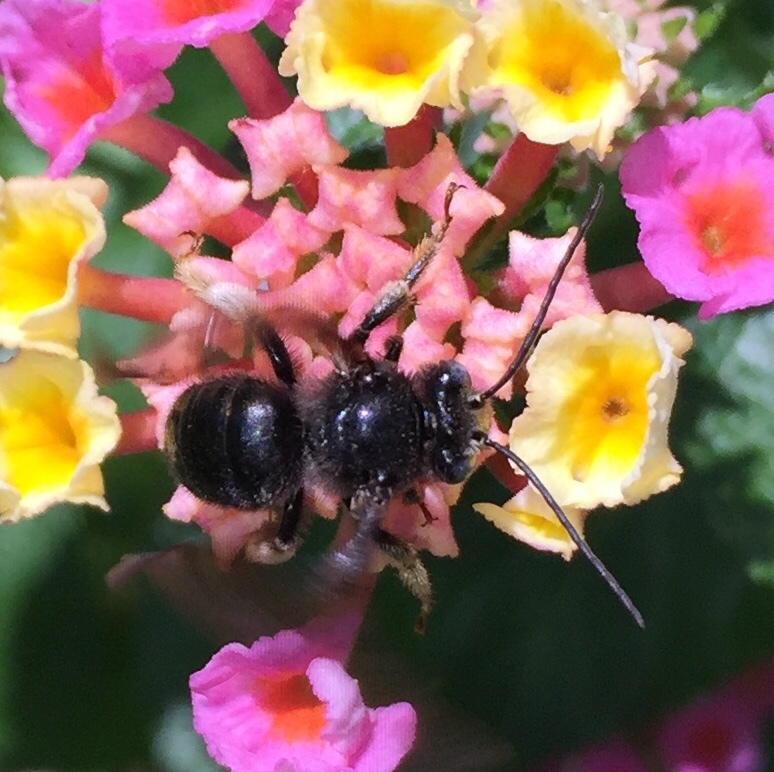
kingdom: Animalia
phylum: Arthropoda
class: Insecta
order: Hymenoptera
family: Apidae
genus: Melissodes
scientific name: Melissodes bimaculatus
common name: Two-spotted long-horned bee
